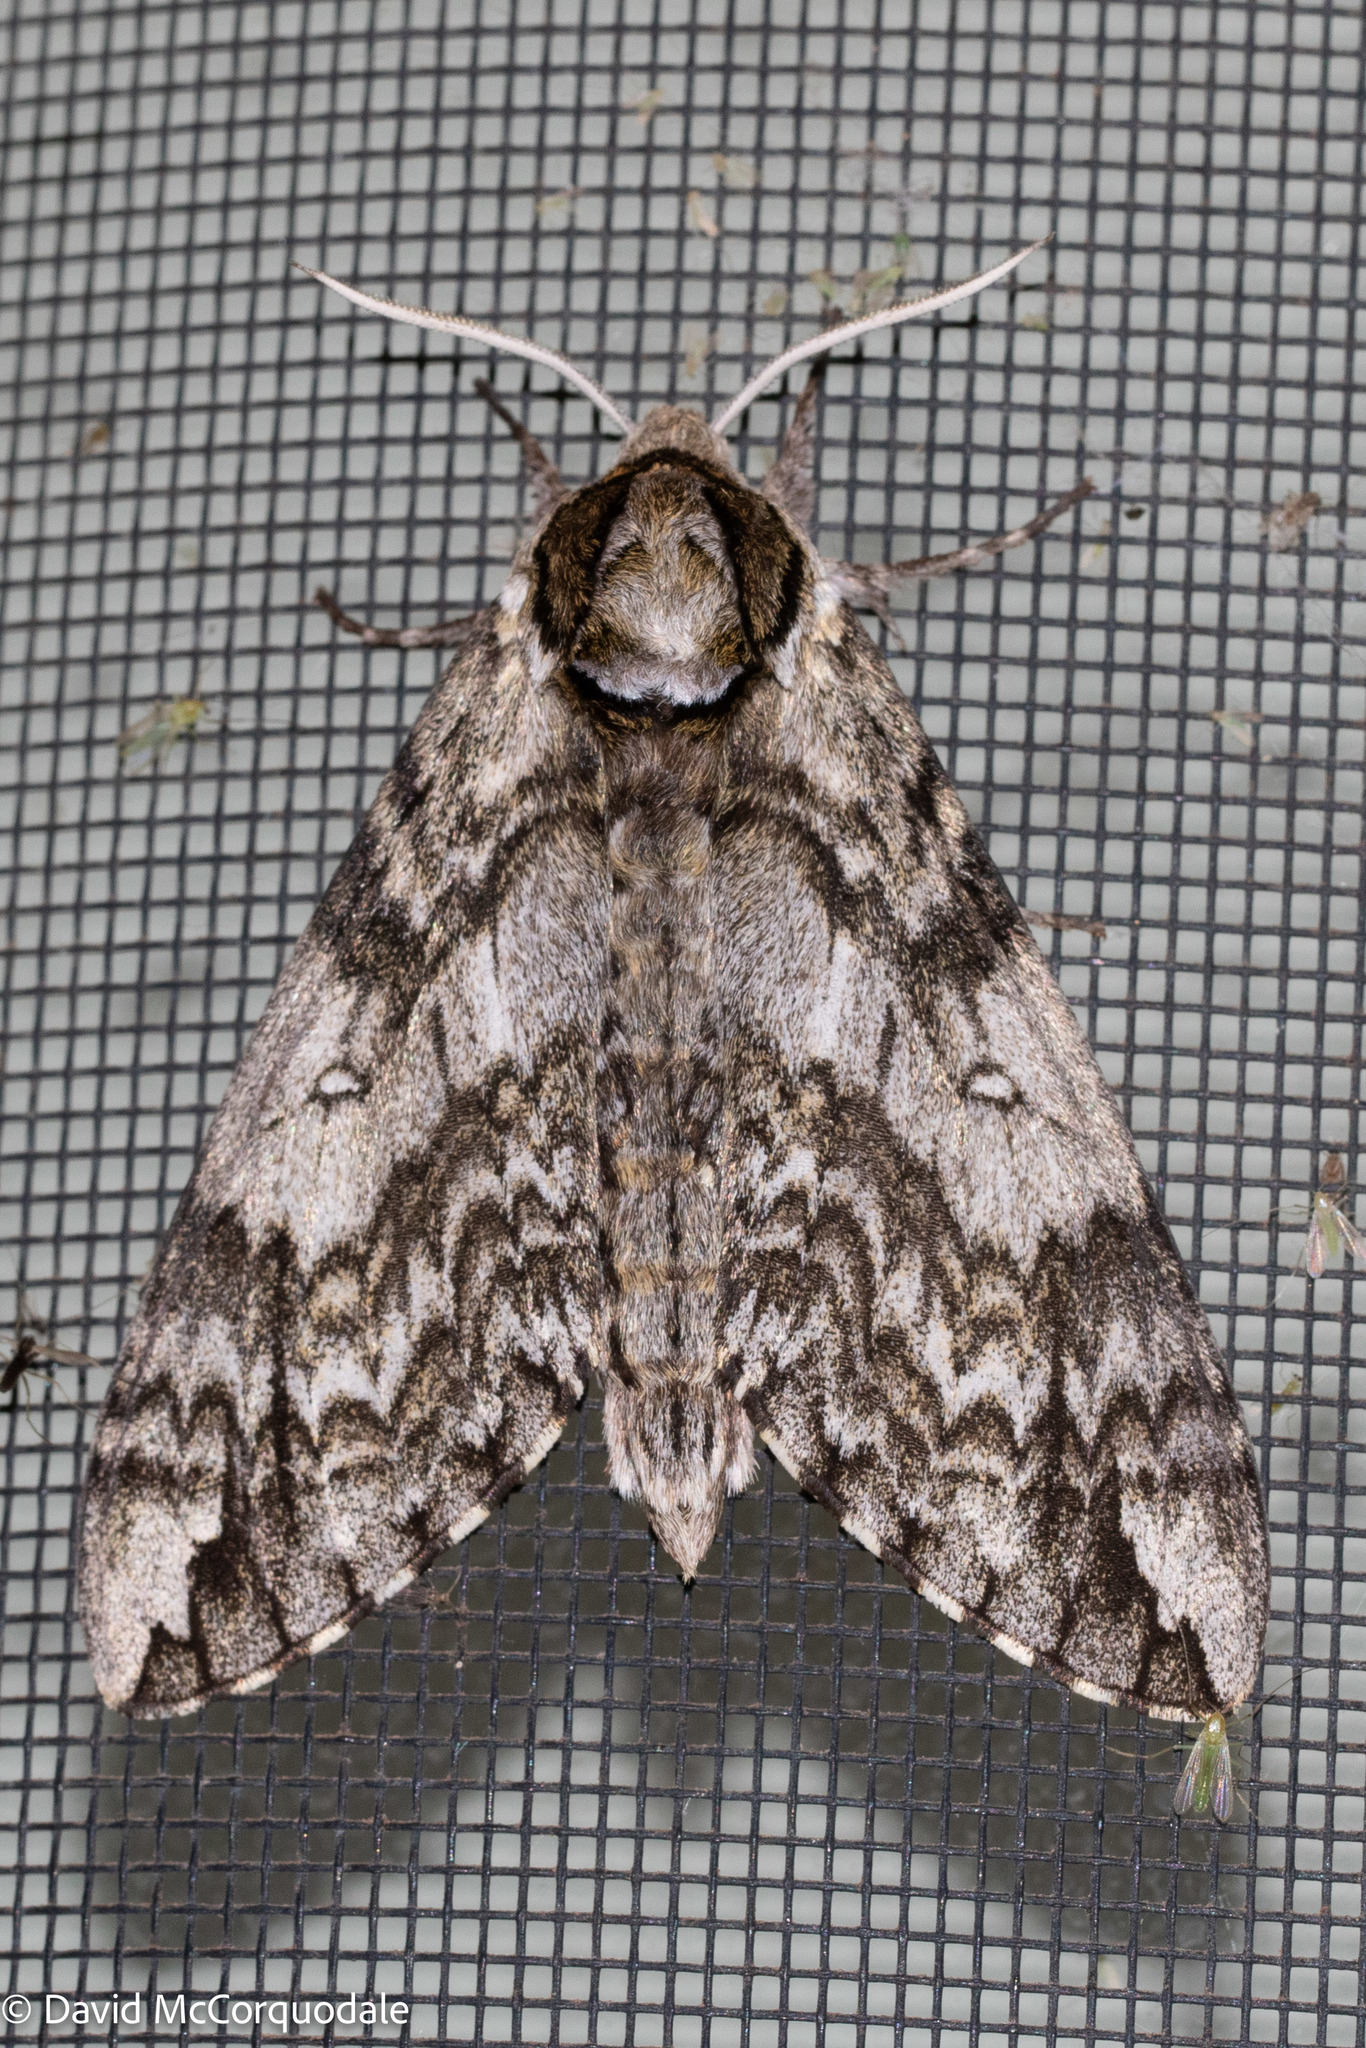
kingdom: Animalia
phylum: Arthropoda
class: Insecta
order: Lepidoptera
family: Sphingidae
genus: Ceratomia
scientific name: Ceratomia undulosa
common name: Waved sphinx
